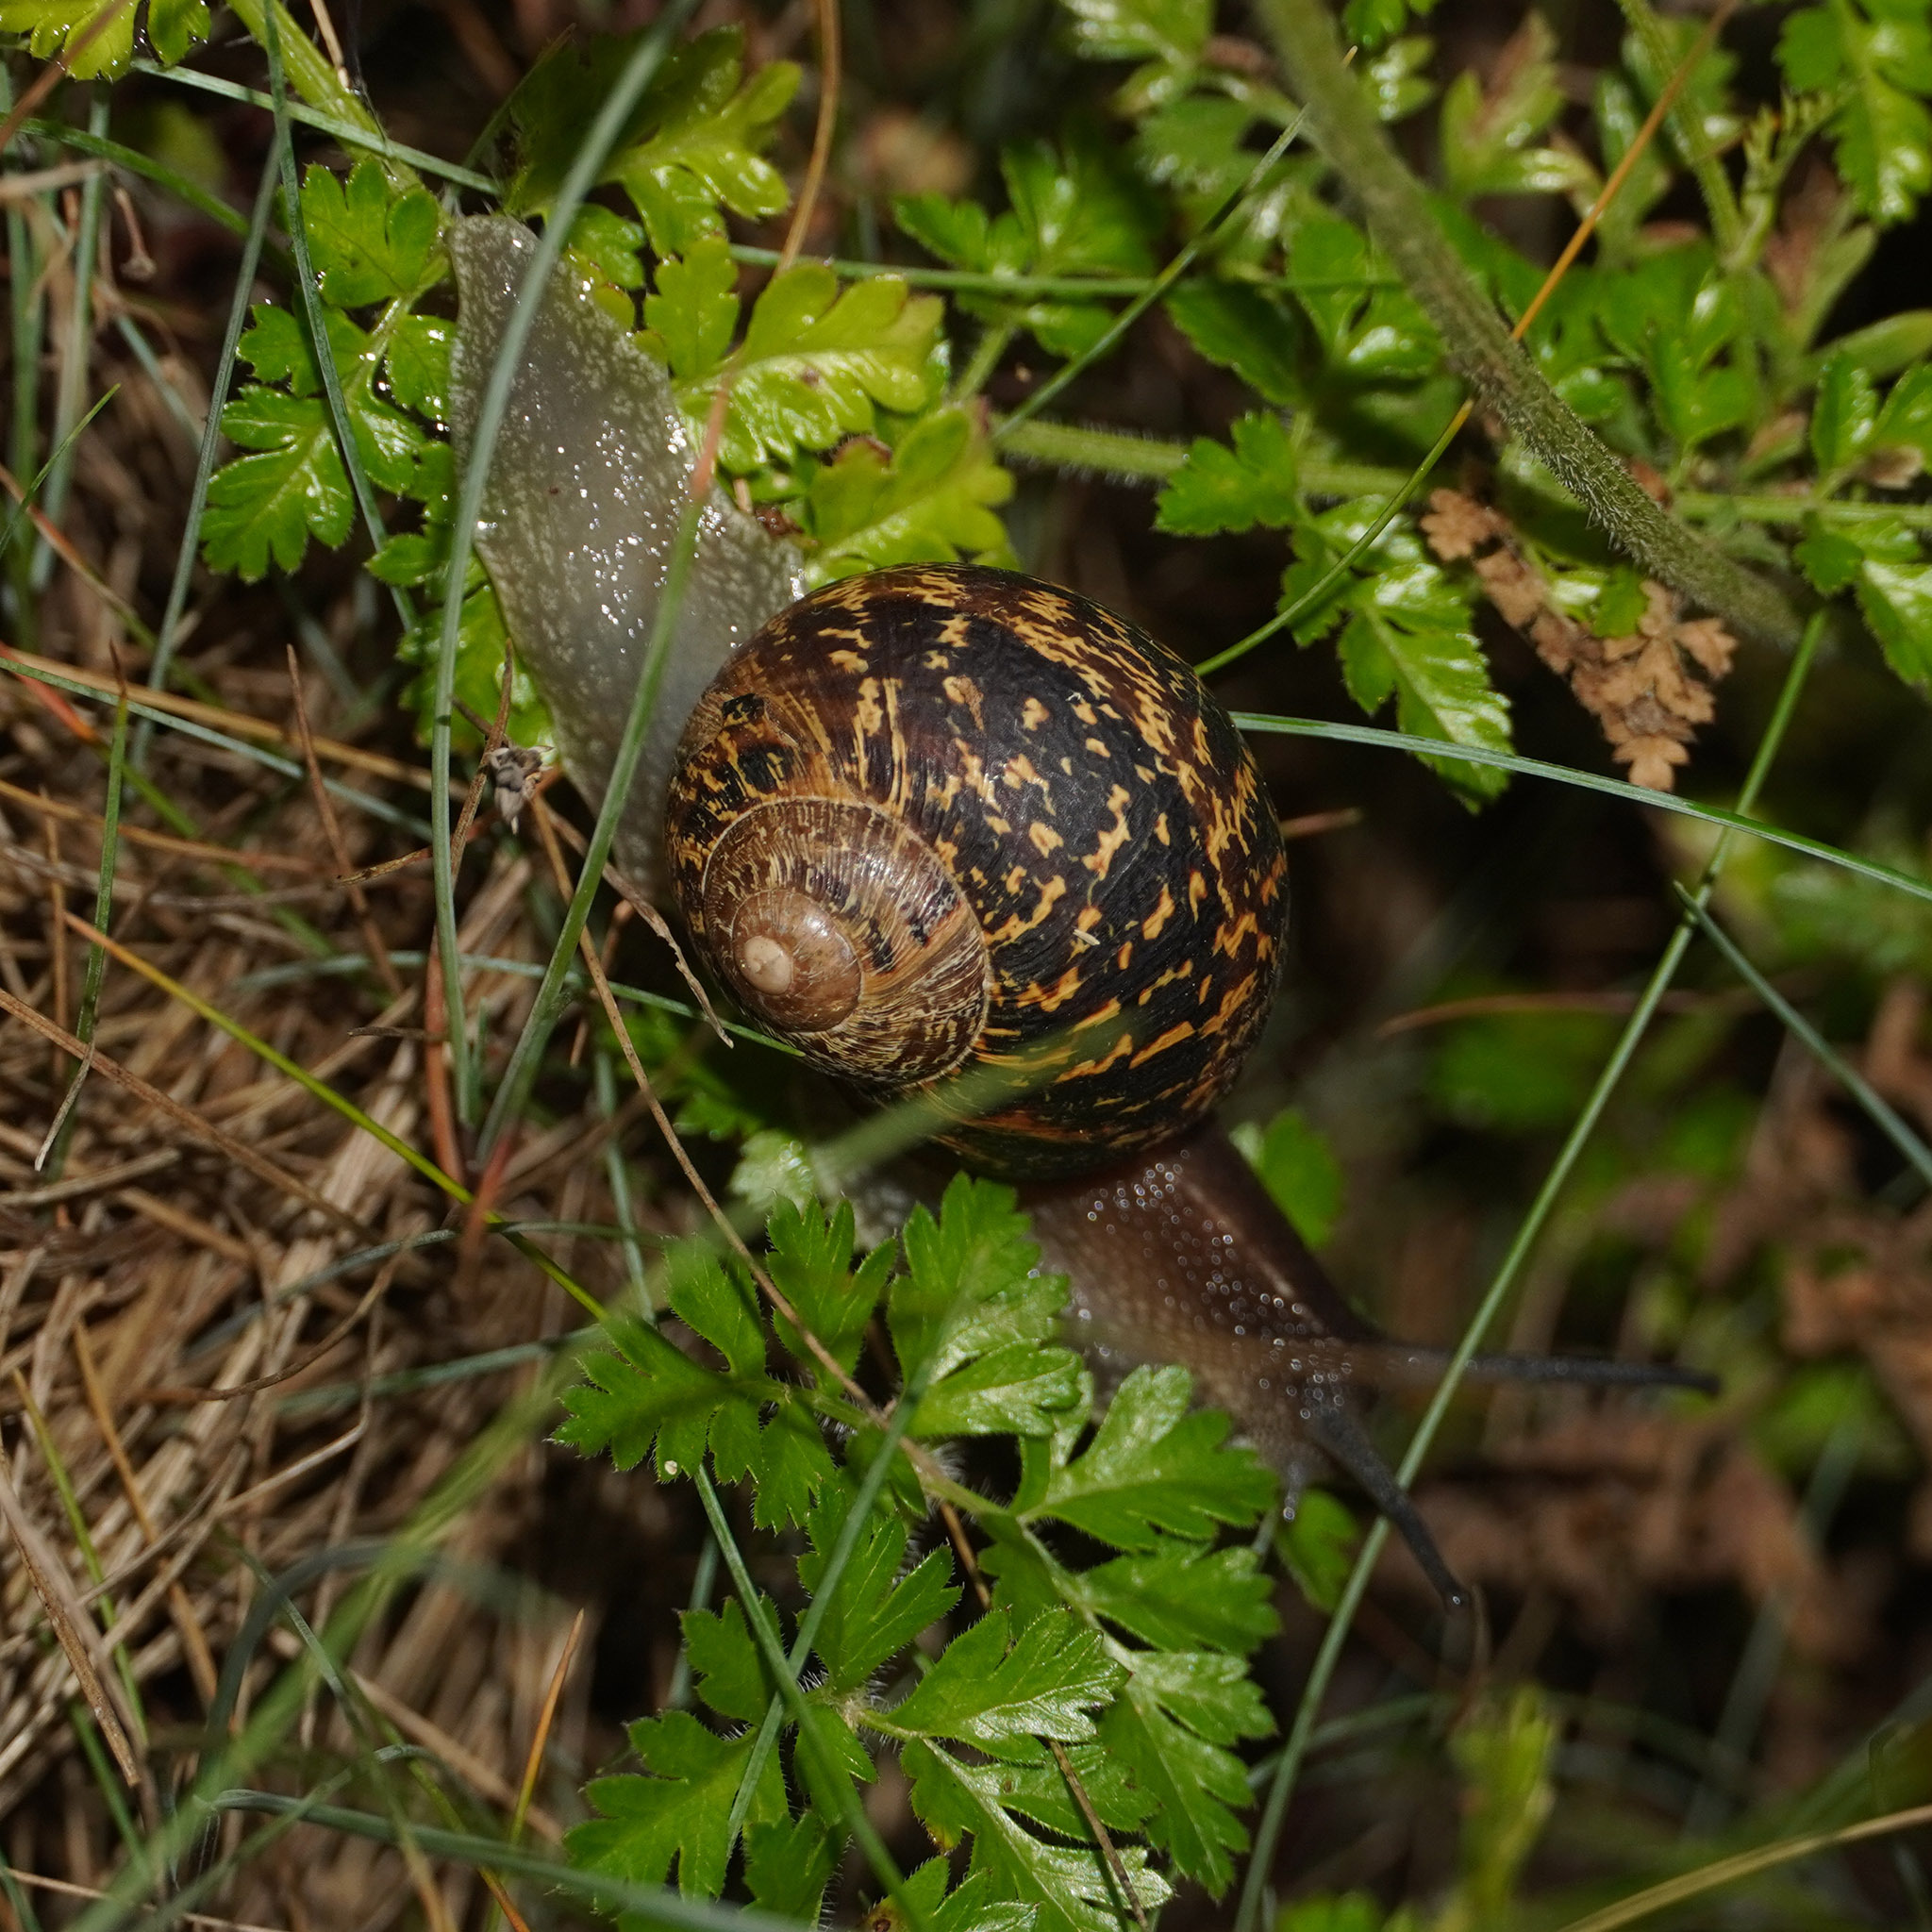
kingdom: Animalia
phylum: Mollusca
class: Gastropoda
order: Stylommatophora
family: Helicidae
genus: Cornu
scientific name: Cornu aspersum
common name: Brown garden snail
